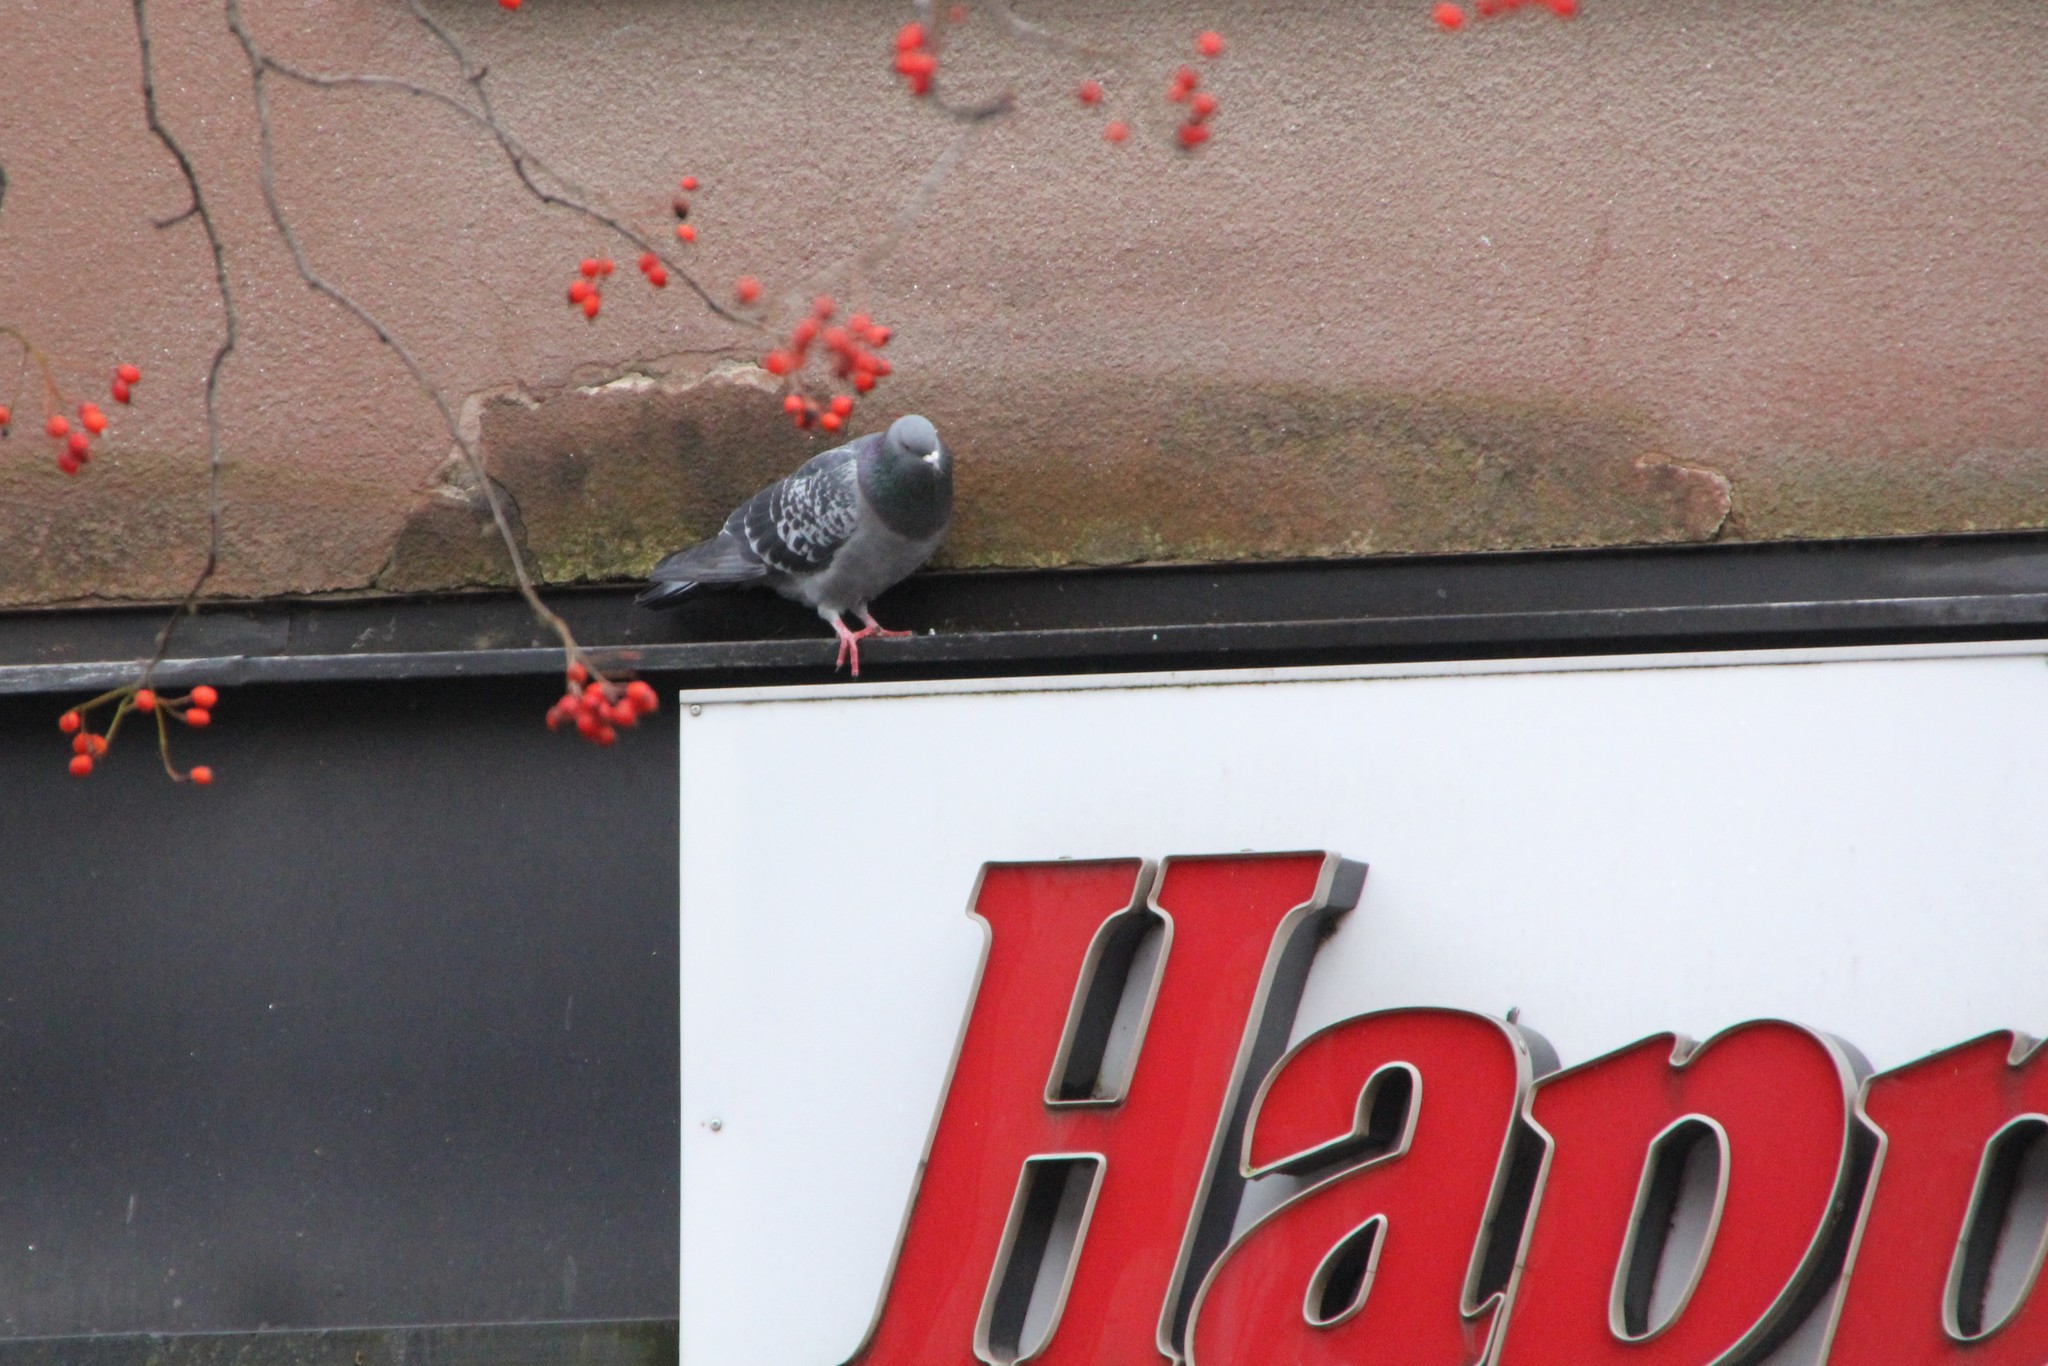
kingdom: Animalia
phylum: Chordata
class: Aves
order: Columbiformes
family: Columbidae
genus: Columba
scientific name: Columba livia
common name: Rock pigeon
